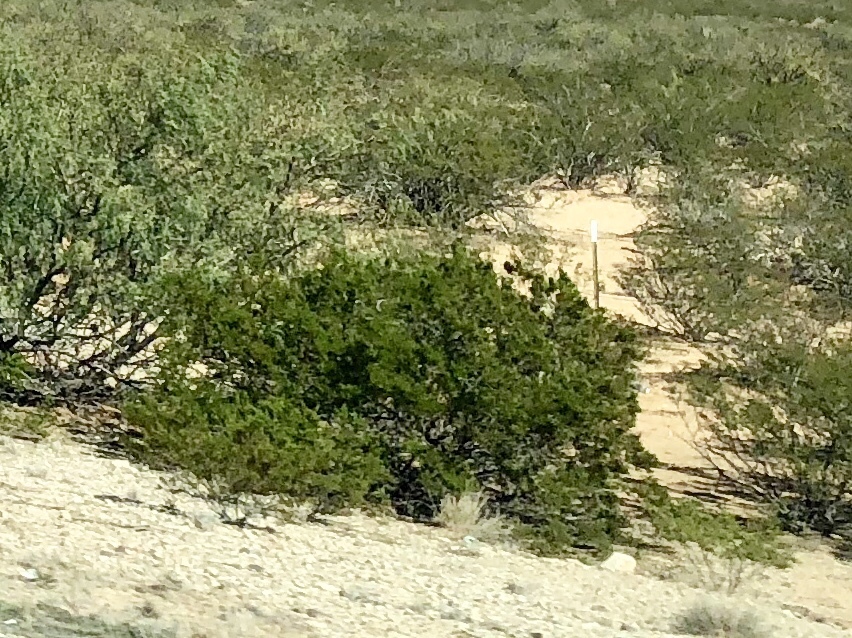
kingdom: Plantae
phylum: Tracheophyta
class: Magnoliopsida
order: Zygophyllales
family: Zygophyllaceae
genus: Larrea
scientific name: Larrea tridentata
